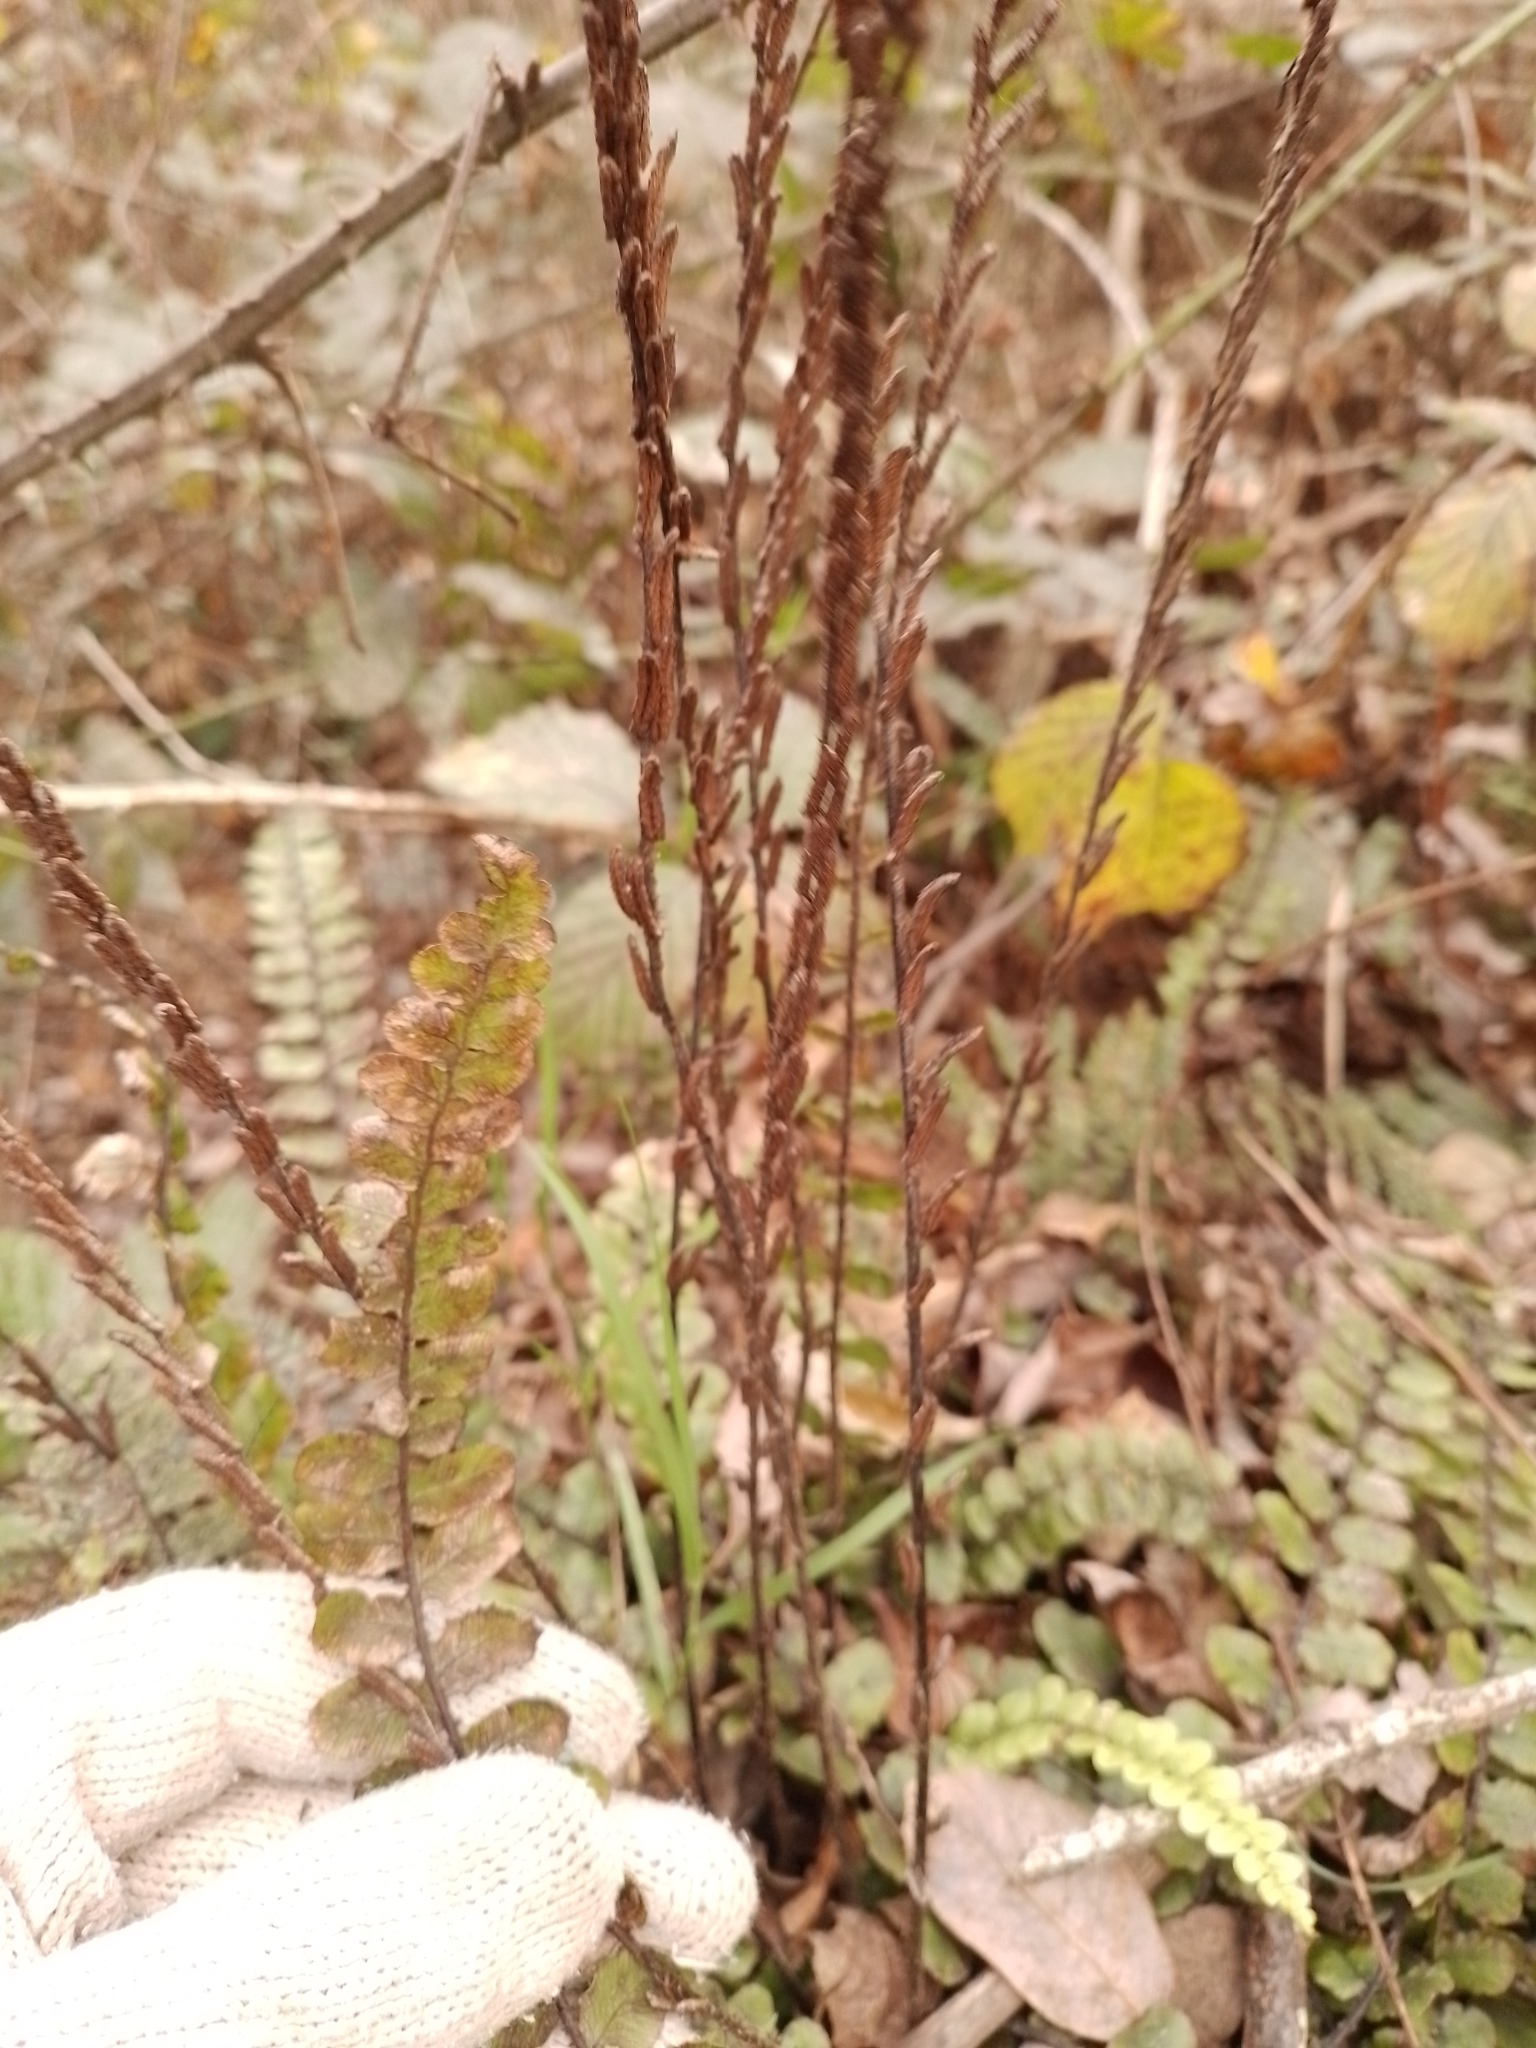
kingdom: Plantae
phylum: Tracheophyta
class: Polypodiopsida
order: Polypodiales
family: Blechnaceae
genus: Cranfillia
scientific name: Cranfillia fluviatilis
